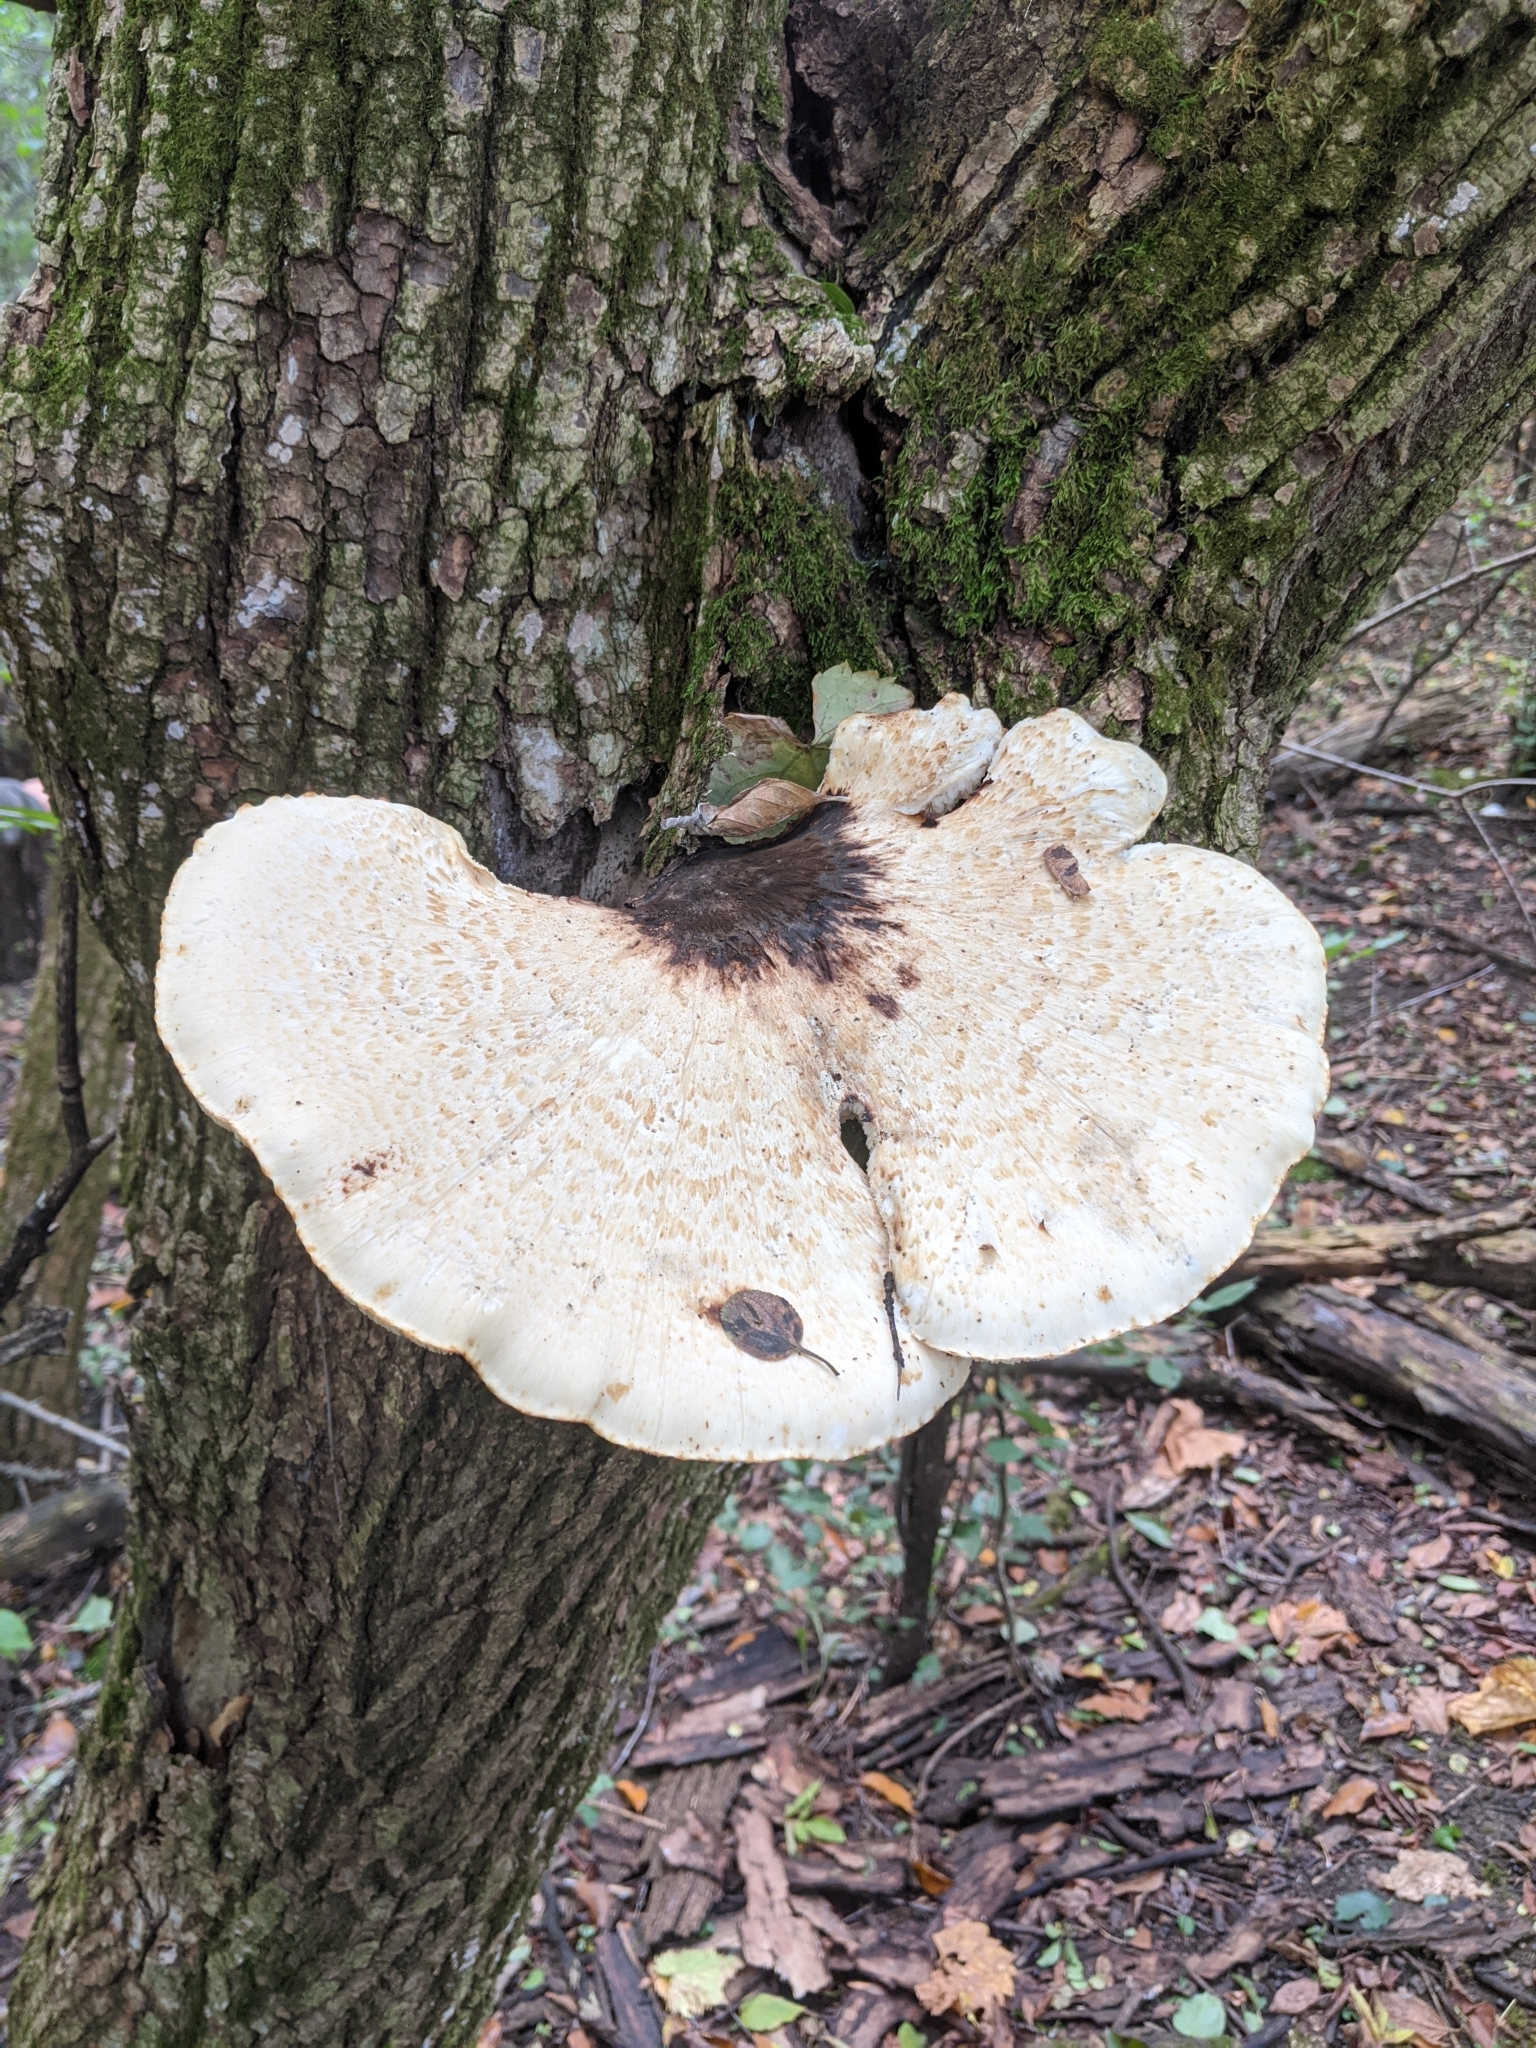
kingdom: Fungi
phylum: Basidiomycota
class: Agaricomycetes
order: Polyporales
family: Polyporaceae
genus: Cerioporus
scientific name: Cerioporus squamosus
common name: Dryad's saddle
